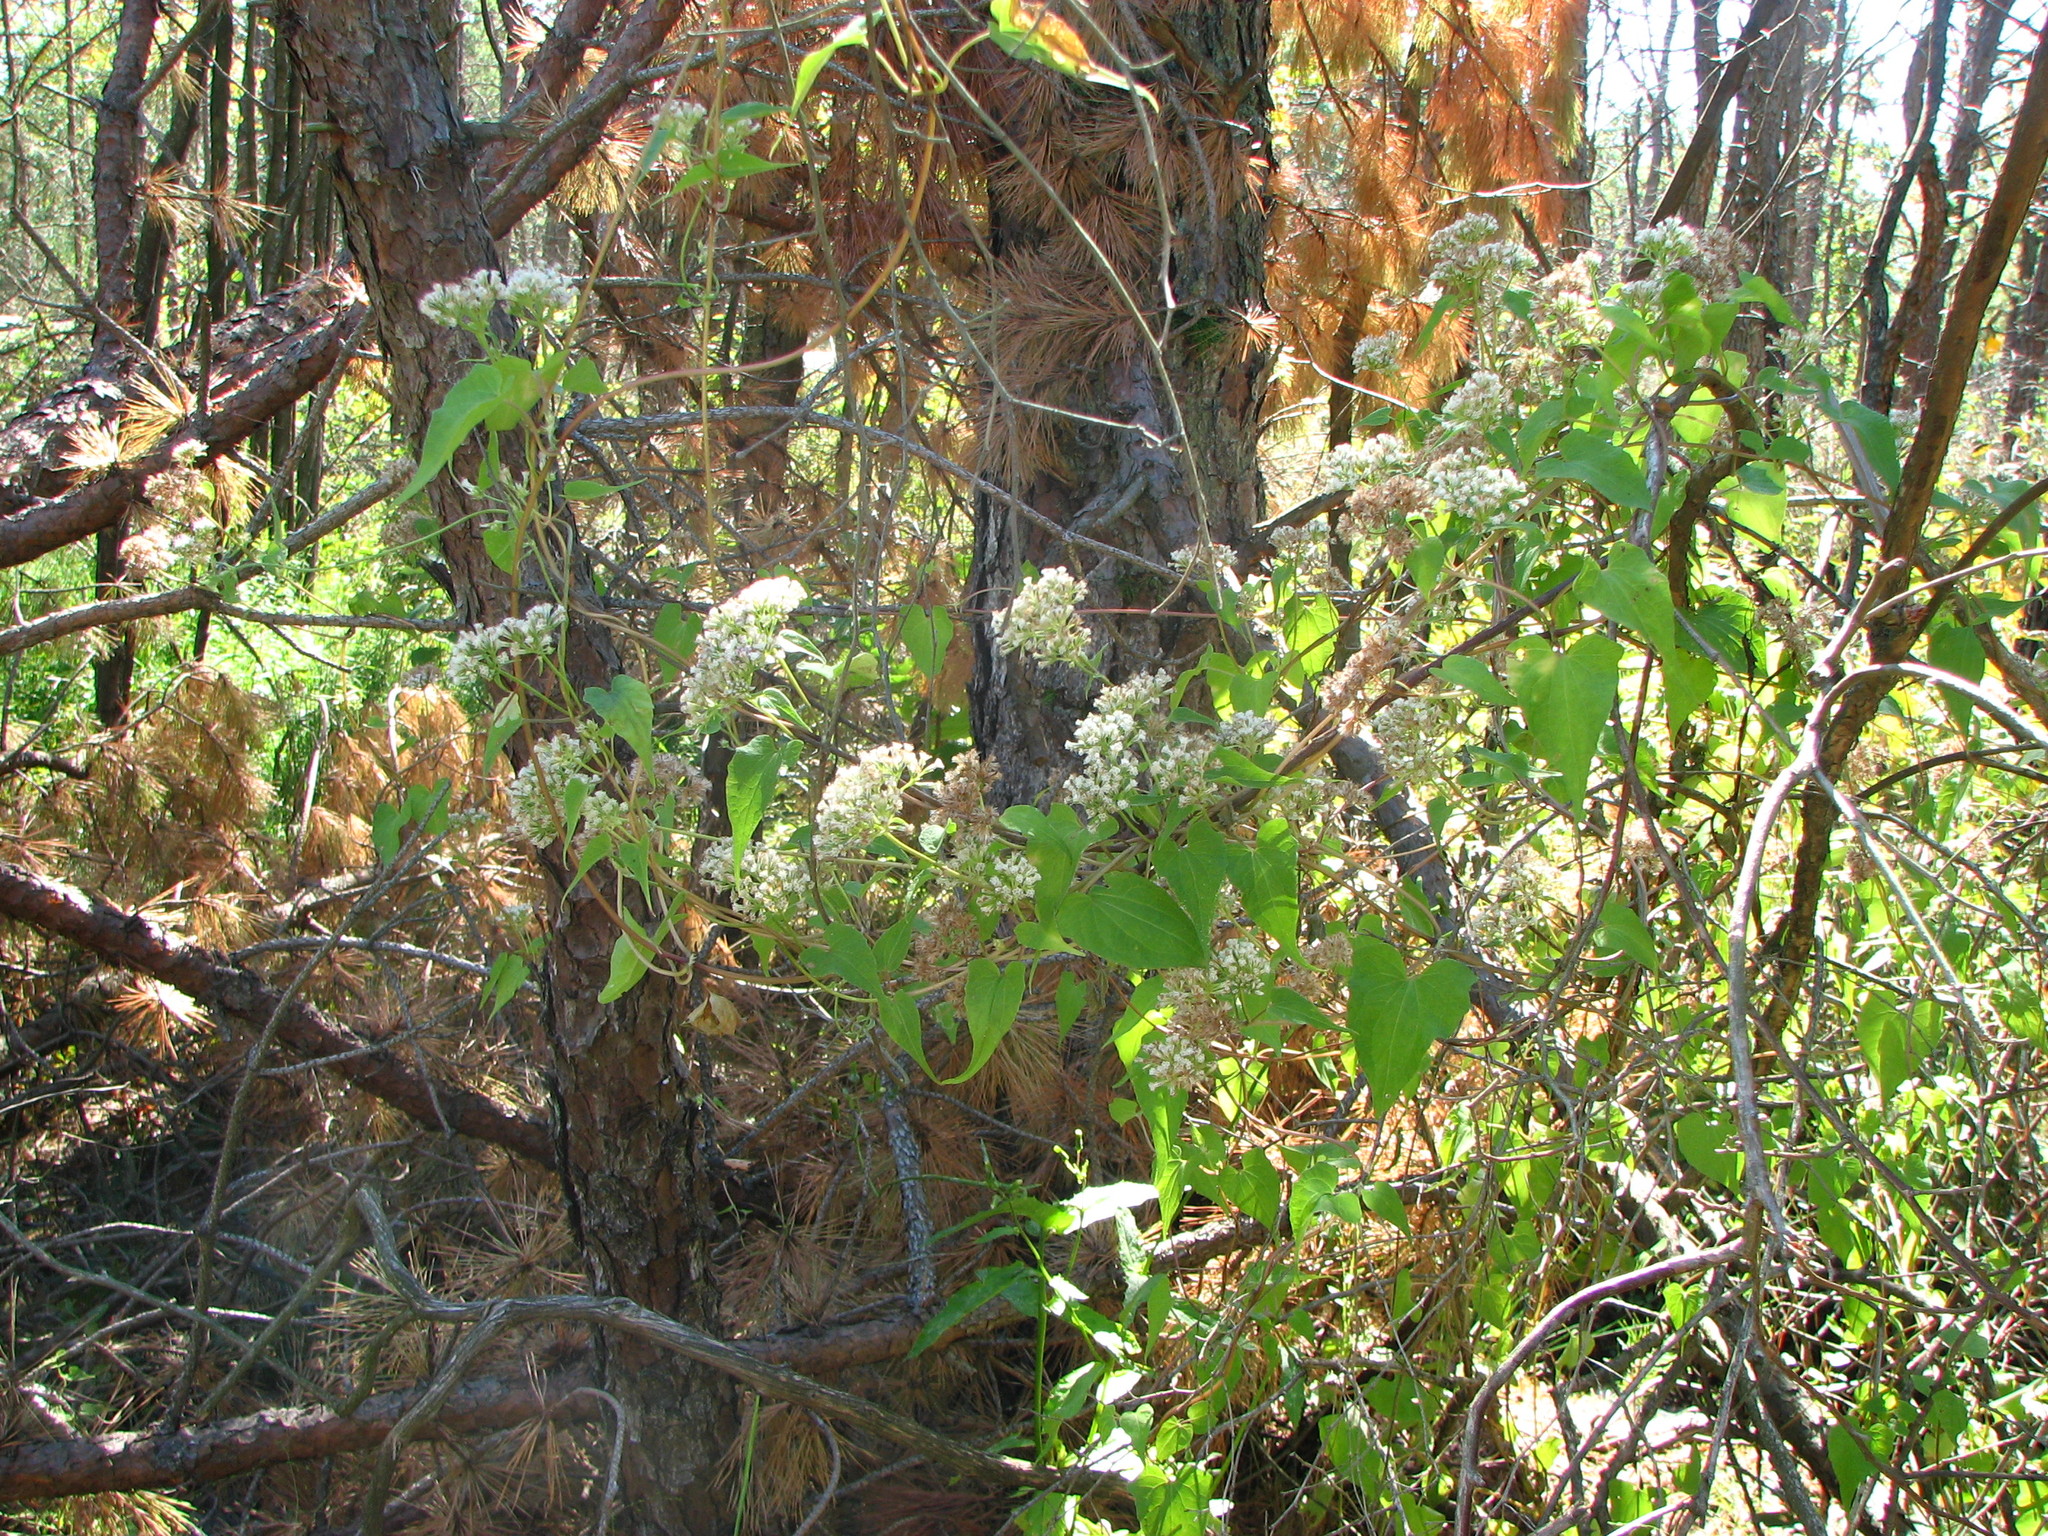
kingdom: Plantae
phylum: Tracheophyta
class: Magnoliopsida
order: Asterales
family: Asteraceae
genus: Mikania
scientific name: Mikania scandens
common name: Climbing hempvine
